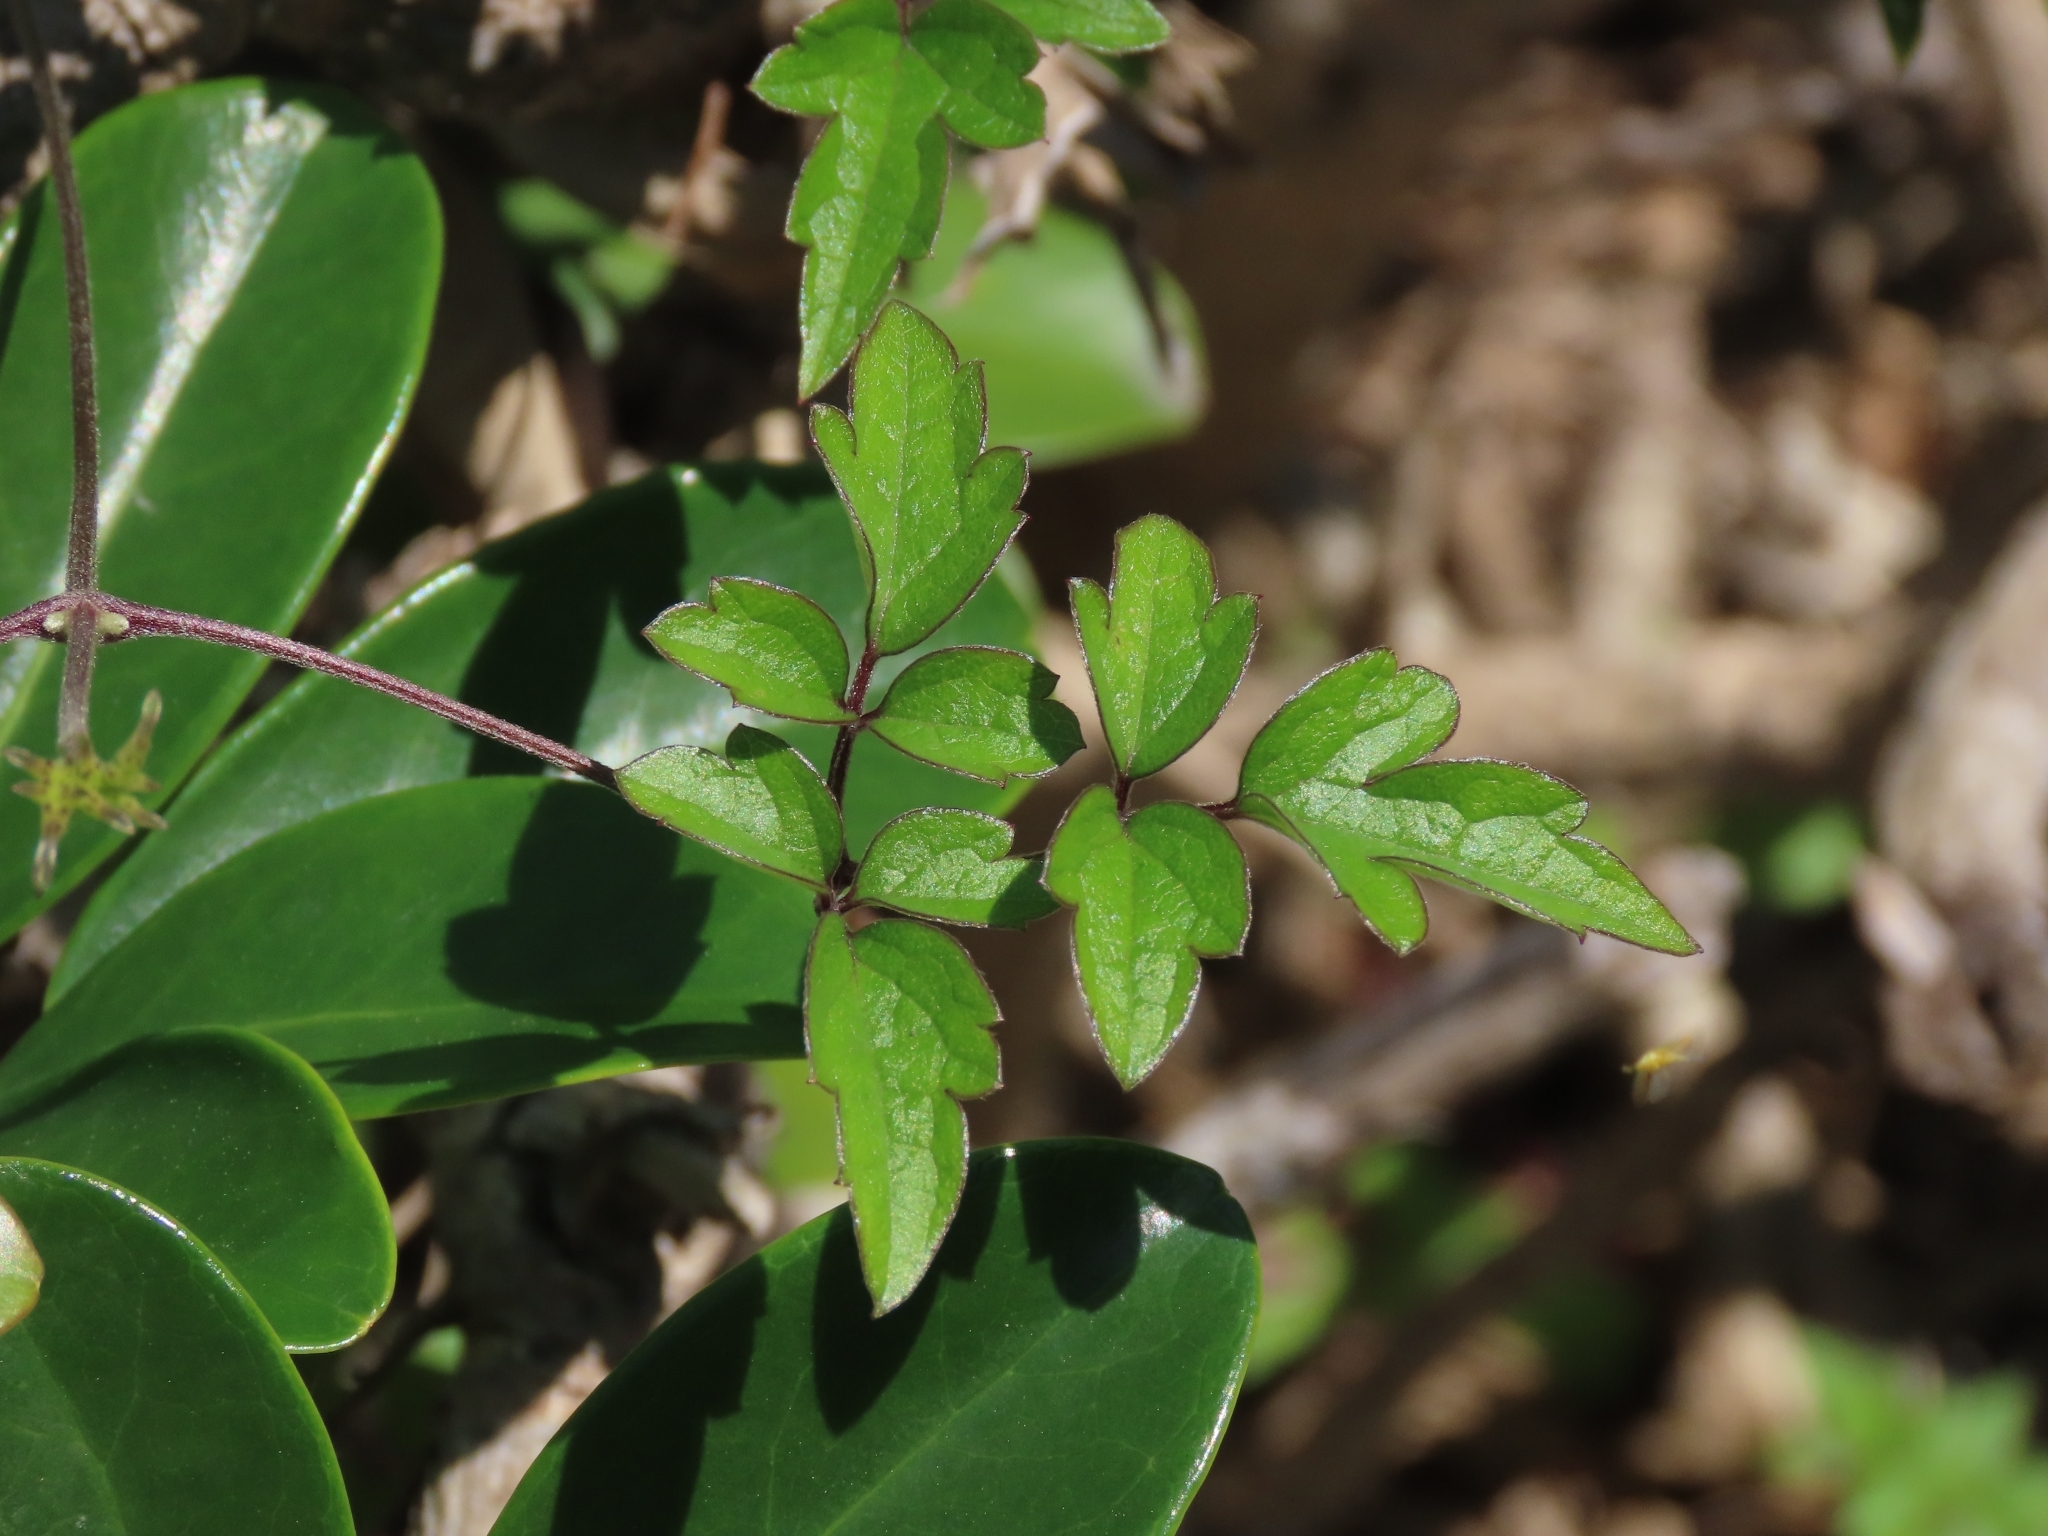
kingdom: Plantae
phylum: Tracheophyta
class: Magnoliopsida
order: Ranunculales
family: Ranunculaceae
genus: Clematis
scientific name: Clematis grata
